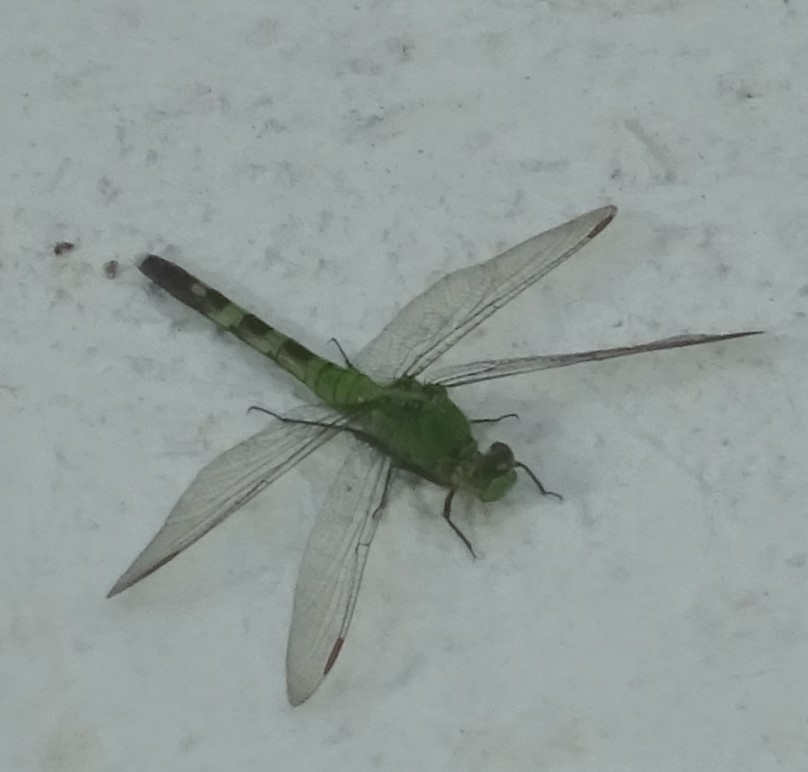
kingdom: Animalia
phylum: Arthropoda
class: Insecta
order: Odonata
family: Libellulidae
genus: Erythemis
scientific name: Erythemis simplicicollis
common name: Eastern pondhawk
